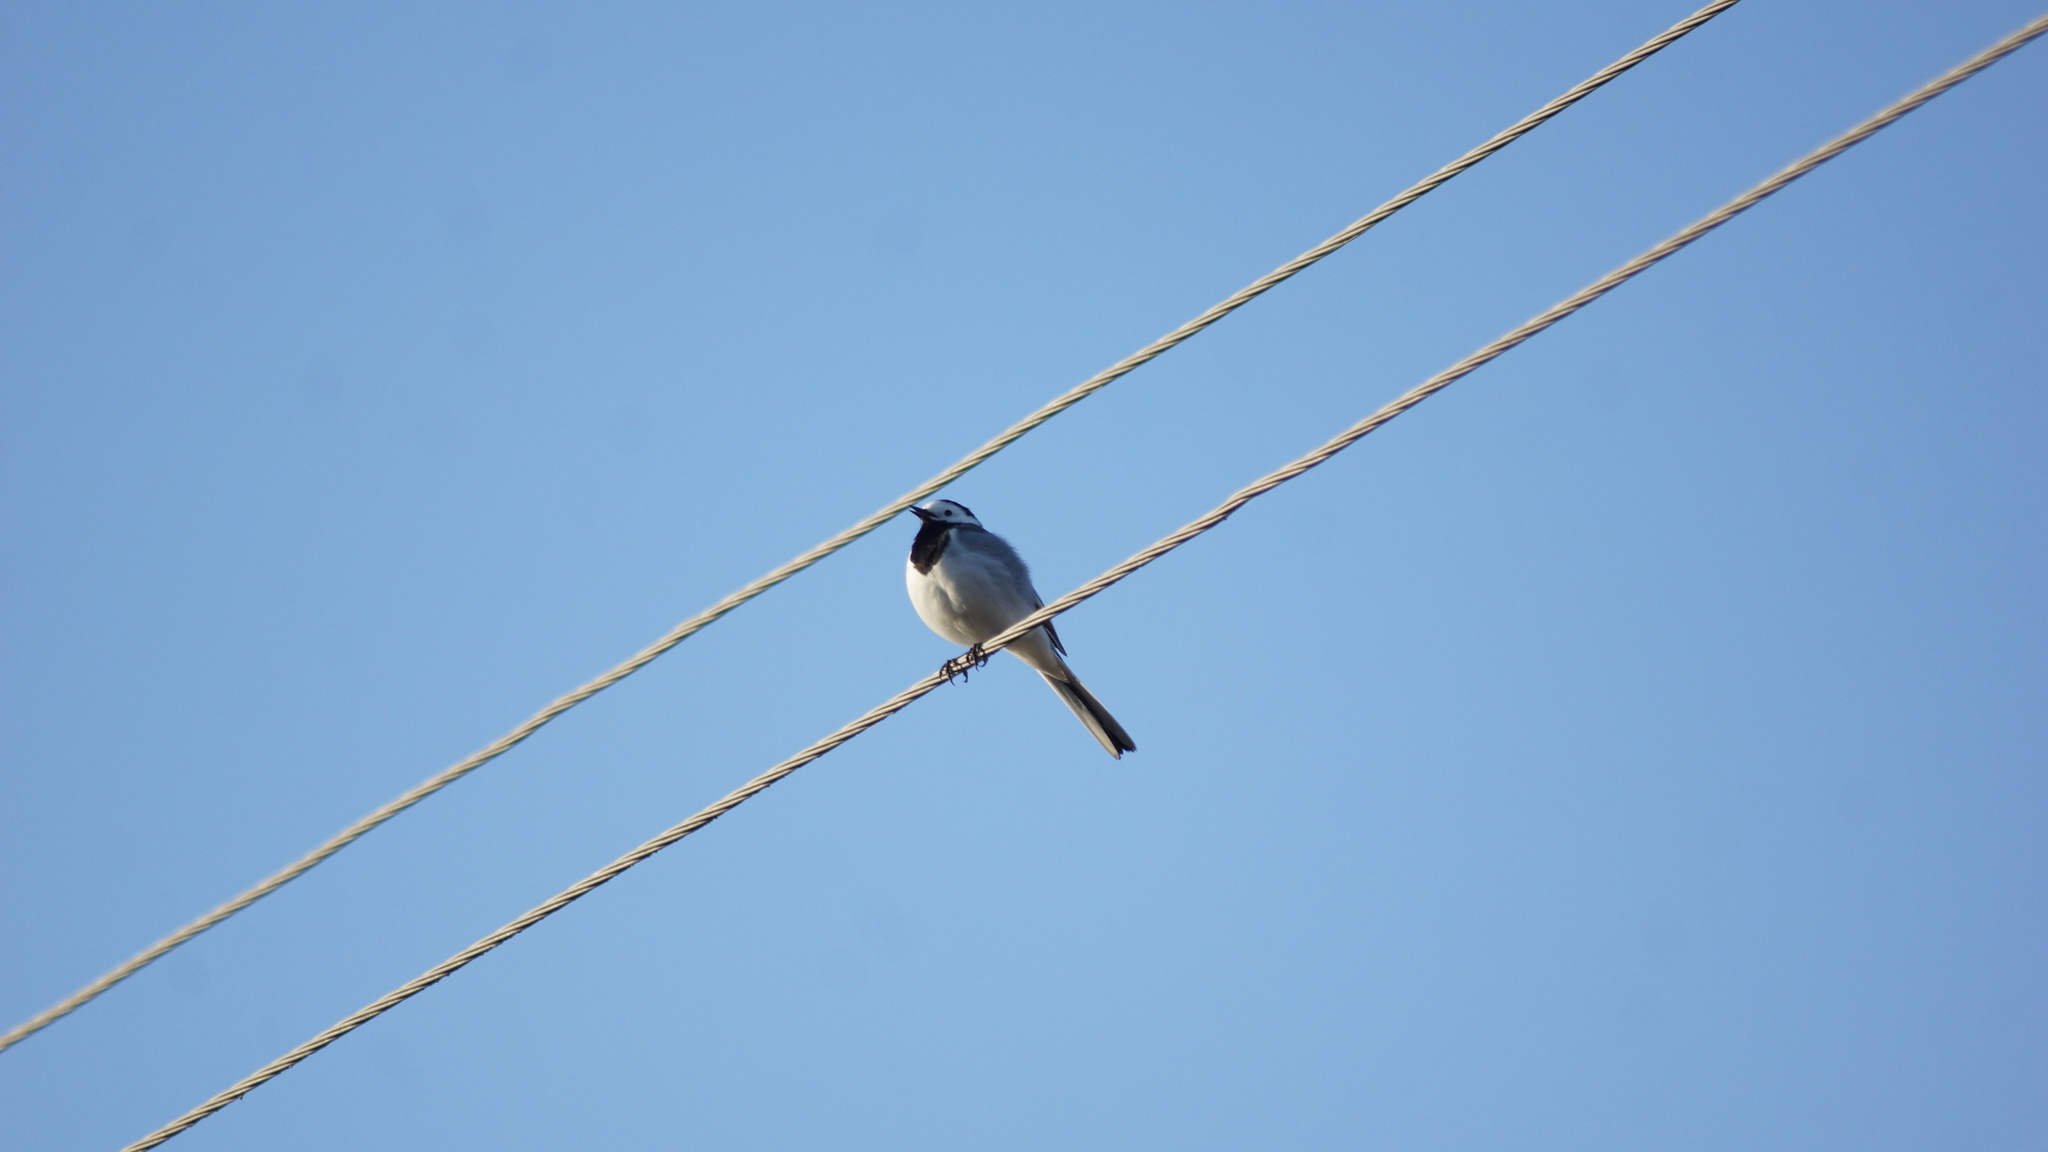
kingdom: Animalia
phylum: Chordata
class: Aves
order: Passeriformes
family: Motacillidae
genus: Motacilla
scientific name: Motacilla alba
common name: White wagtail
